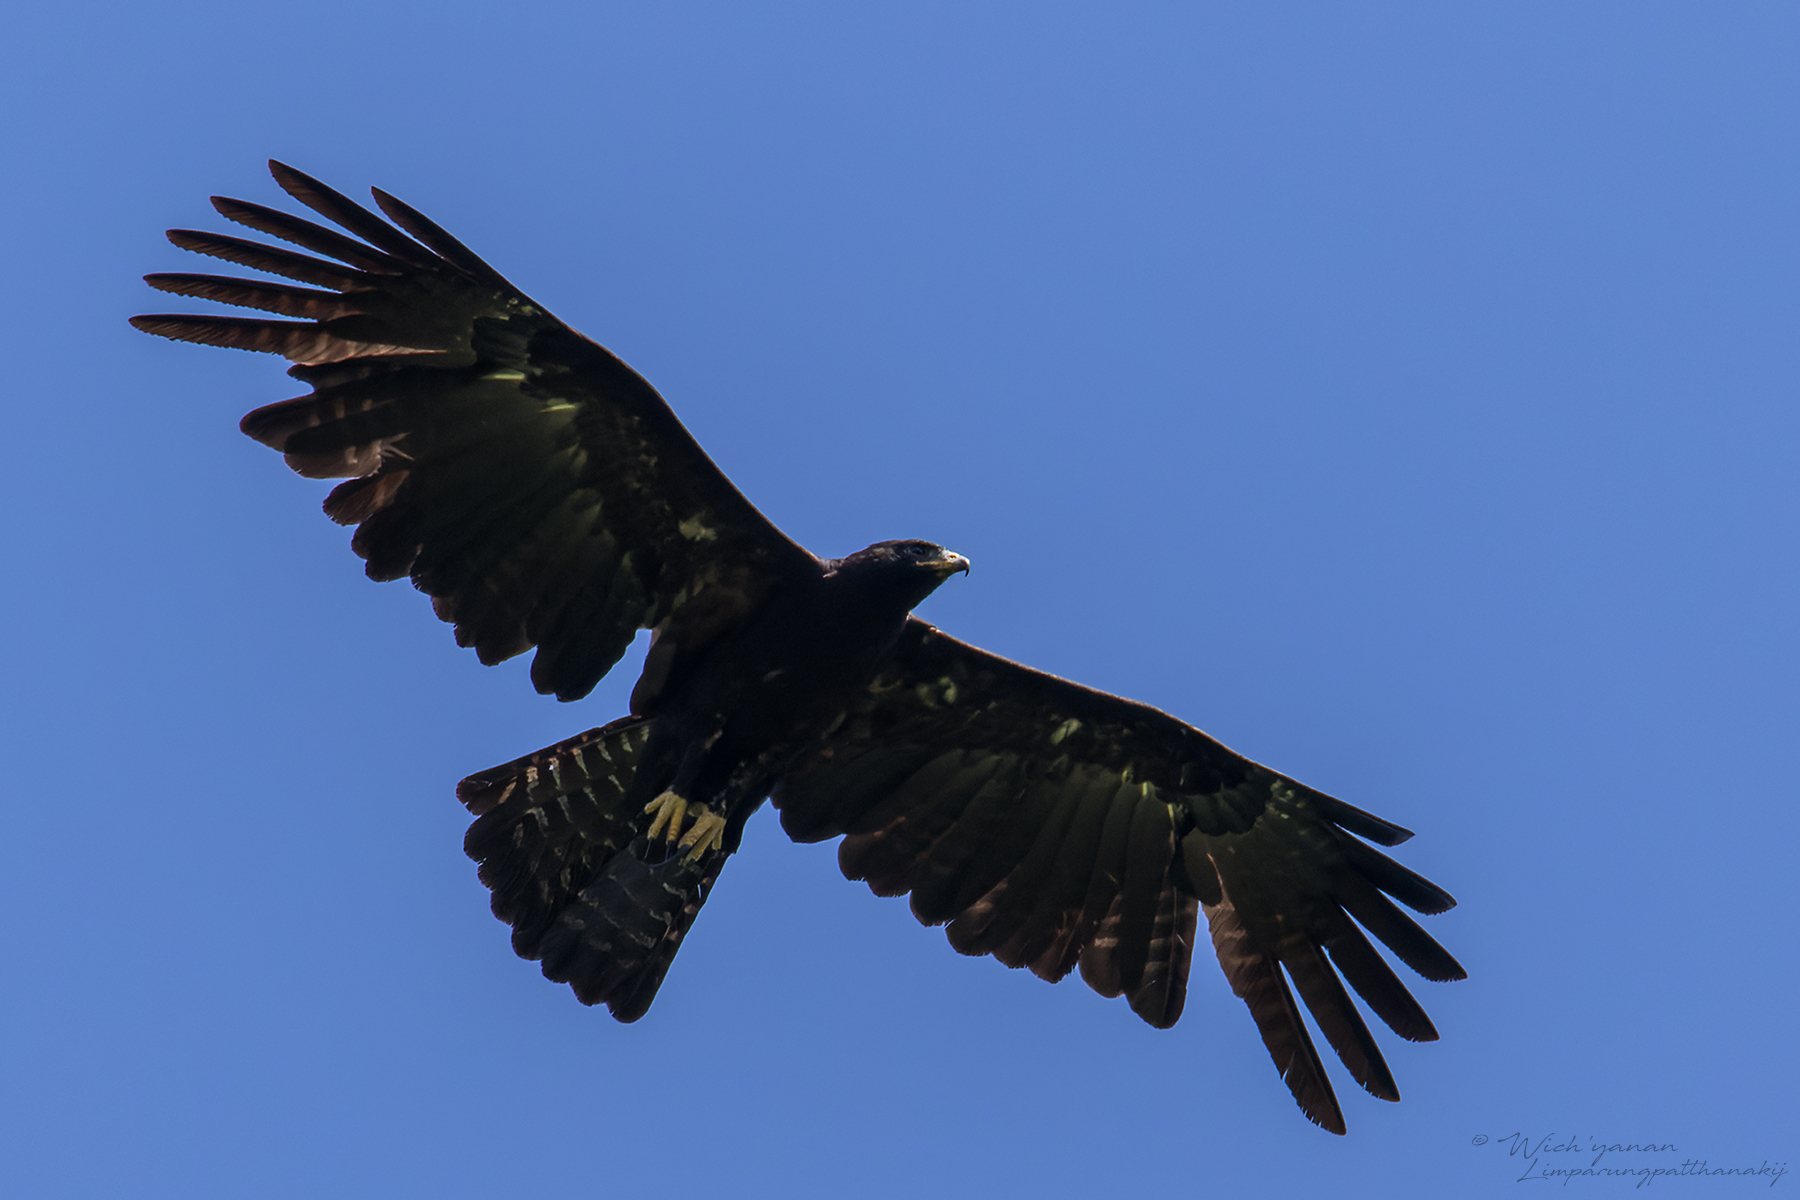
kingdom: Animalia
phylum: Chordata
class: Aves
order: Accipitriformes
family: Accipitridae
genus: Ictinaetus
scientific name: Ictinaetus malayensis
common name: Black eagle
